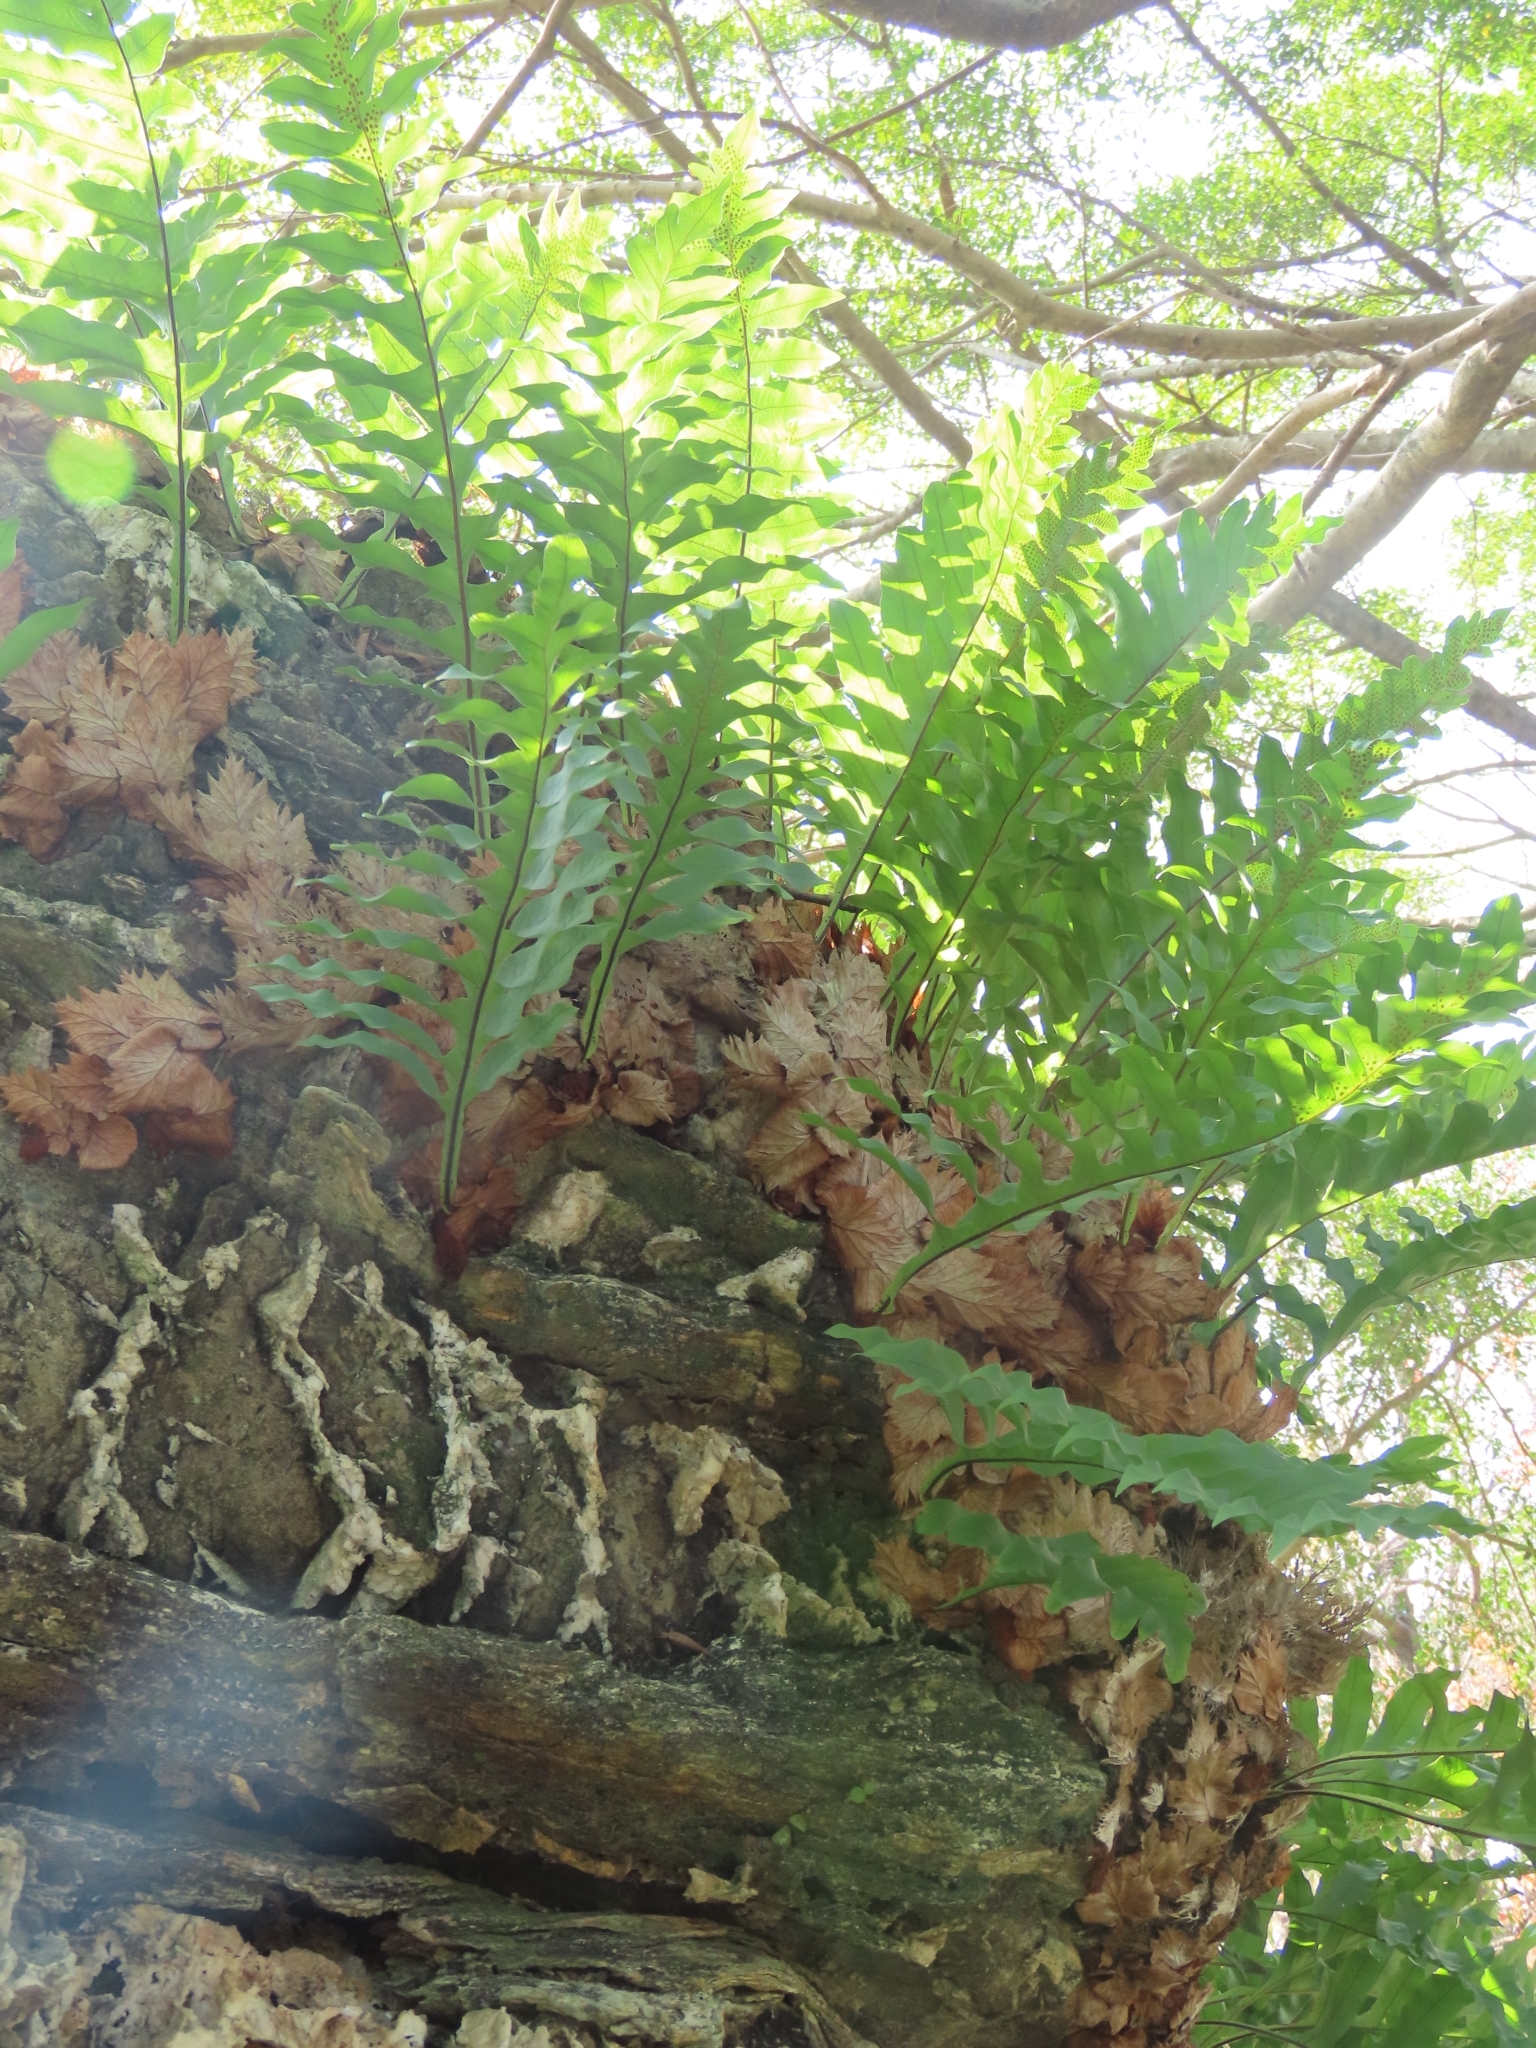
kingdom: Plantae
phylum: Tracheophyta
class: Polypodiopsida
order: Polypodiales
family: Polypodiaceae
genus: Drynaria
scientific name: Drynaria roosii
